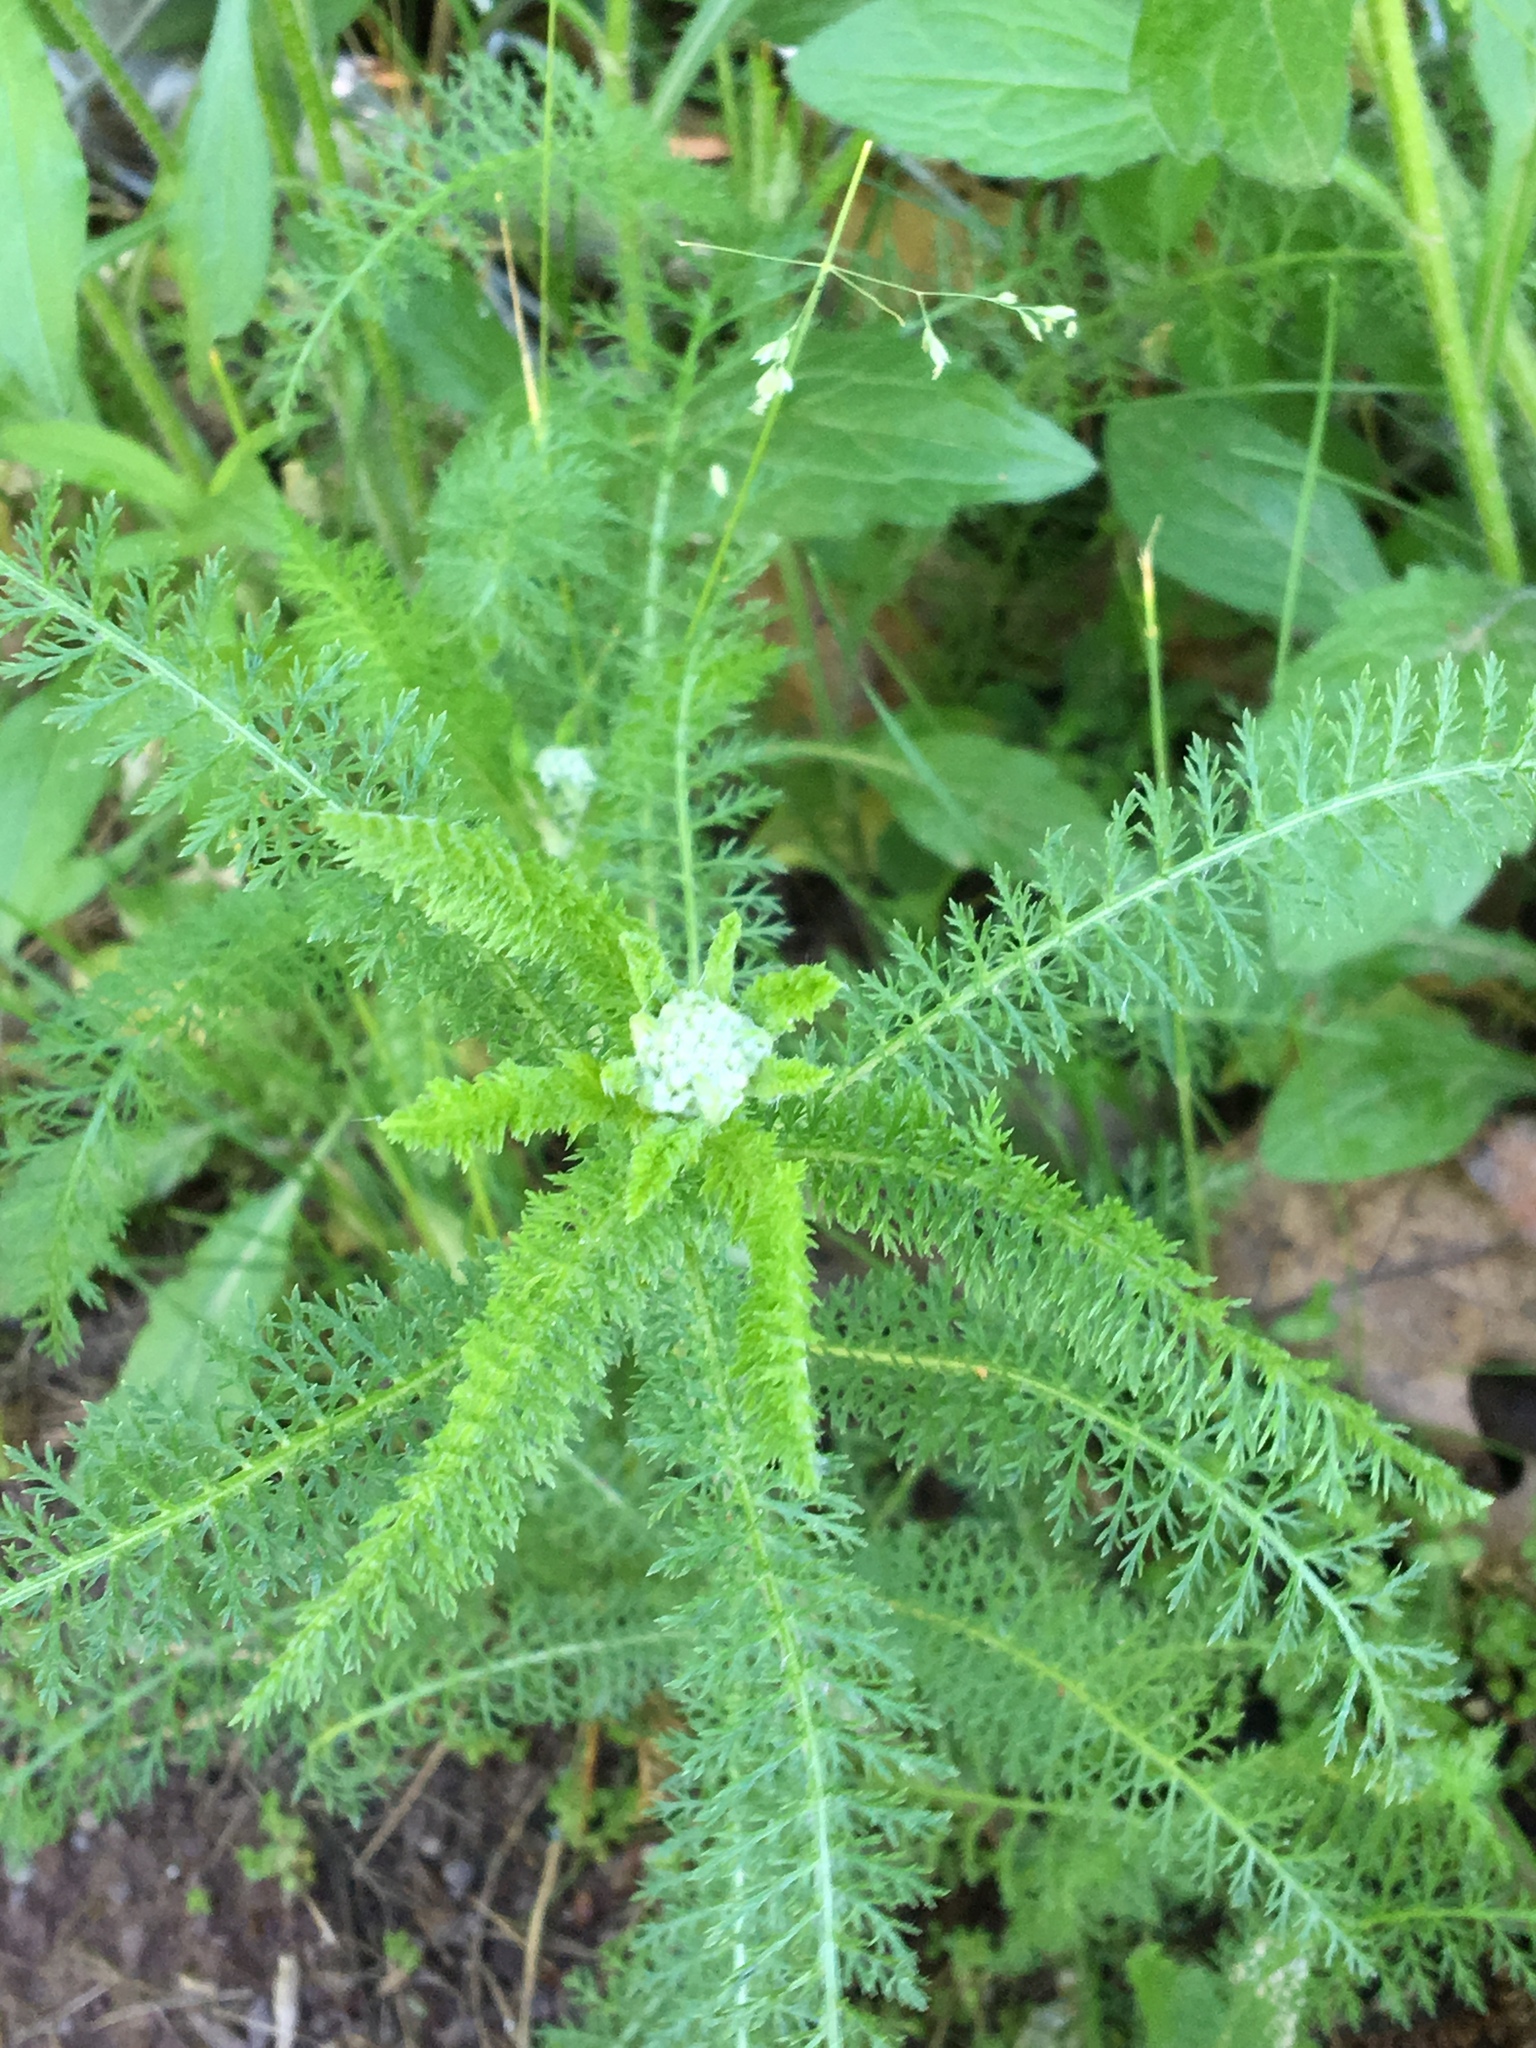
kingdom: Plantae
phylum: Tracheophyta
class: Magnoliopsida
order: Asterales
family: Asteraceae
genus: Achillea
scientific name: Achillea millefolium
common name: Yarrow
